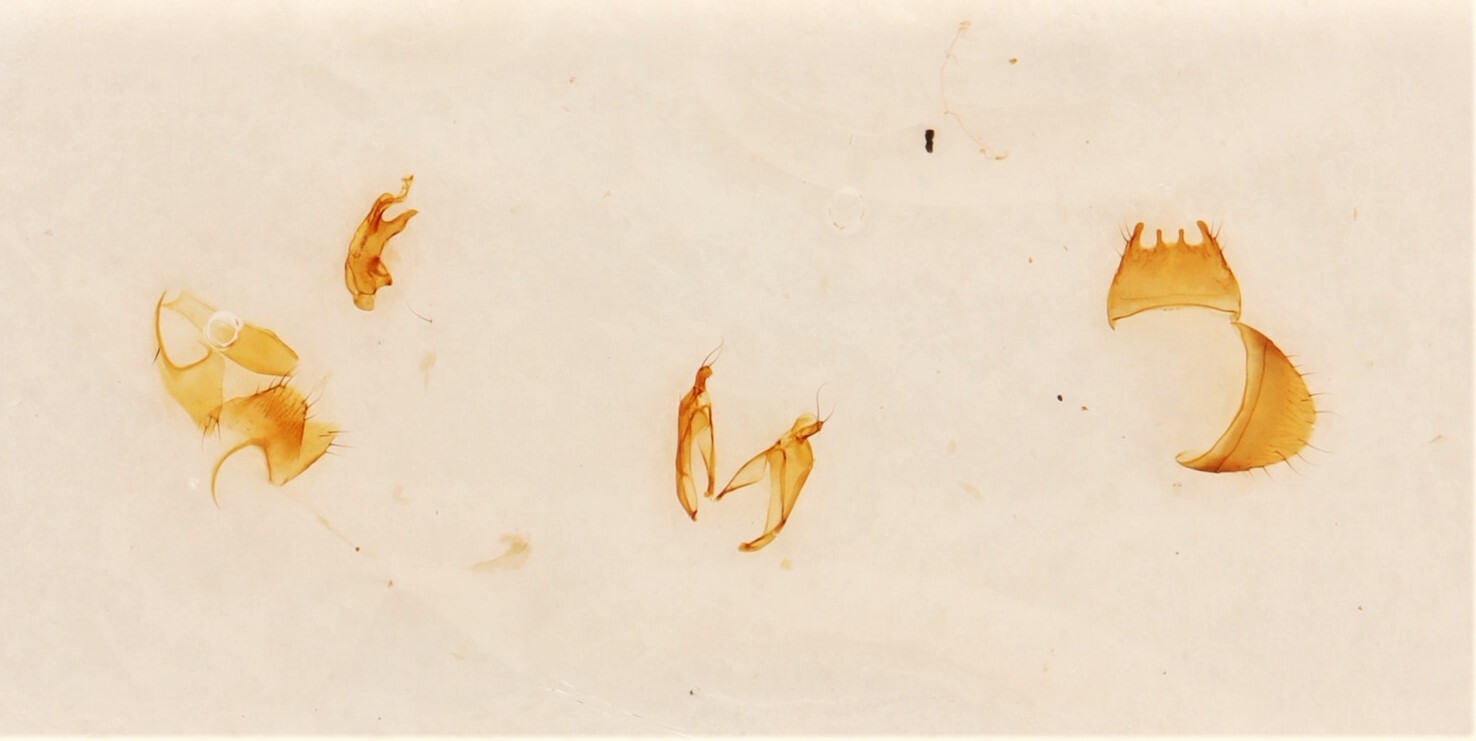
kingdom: Animalia
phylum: Arthropoda
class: Insecta
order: Coleoptera
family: Staphylinidae
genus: Gyrophaena
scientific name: Gyrophaena nanoides
